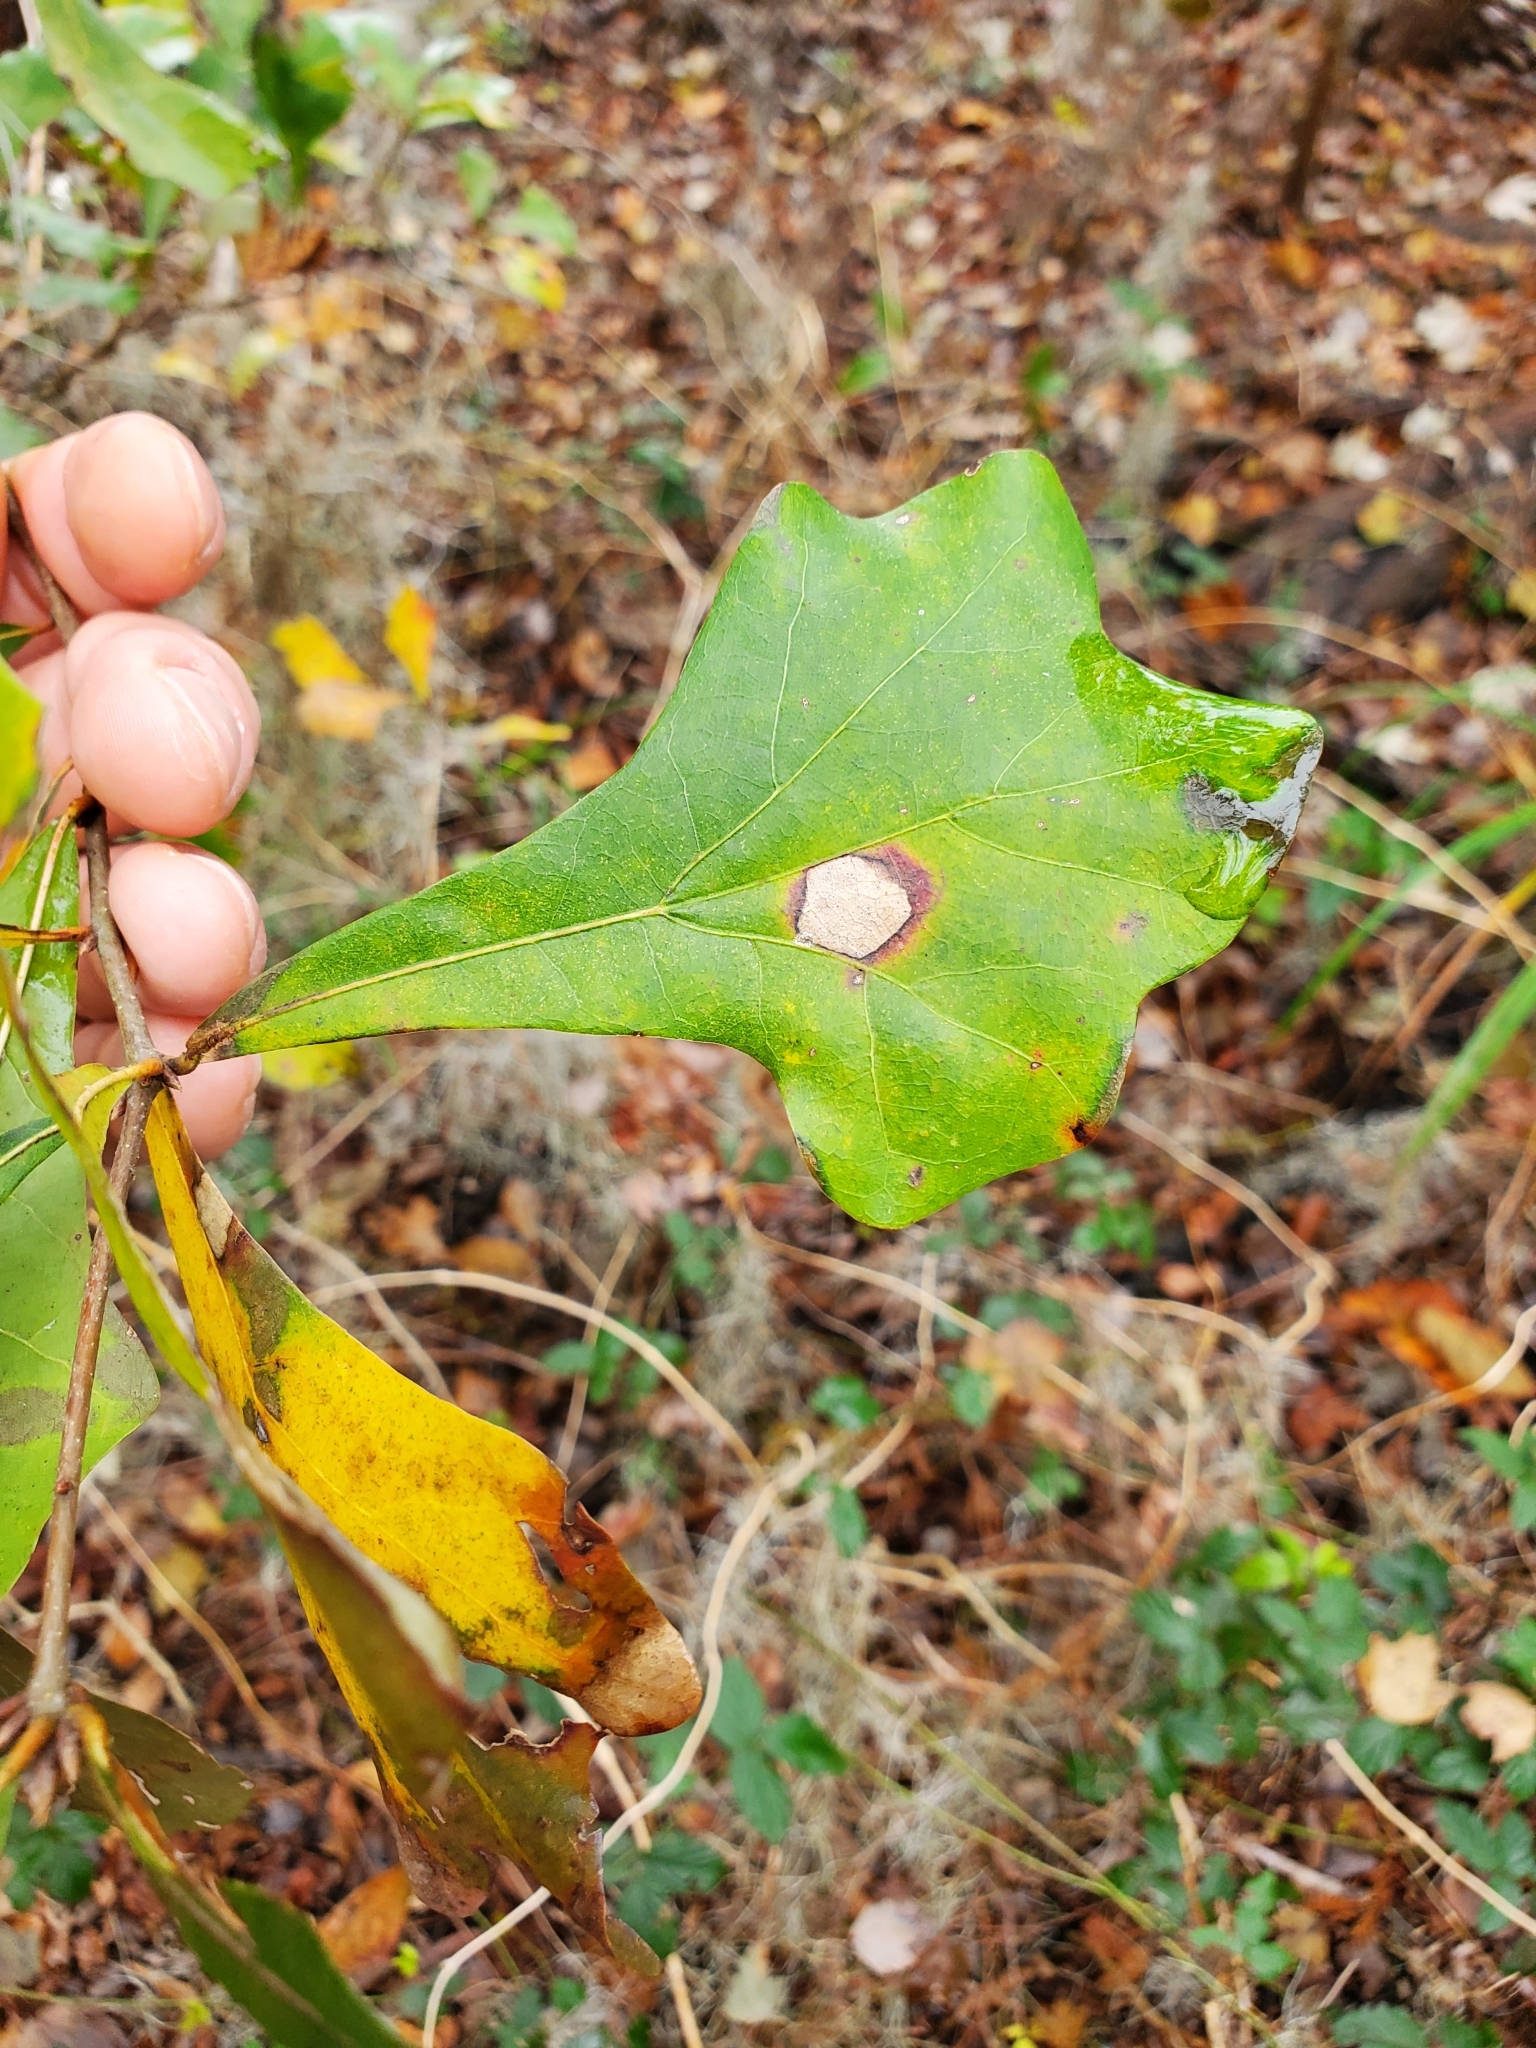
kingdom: Plantae
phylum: Tracheophyta
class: Magnoliopsida
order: Fagales
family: Fagaceae
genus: Quercus
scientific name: Quercus nigra
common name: Water oak
